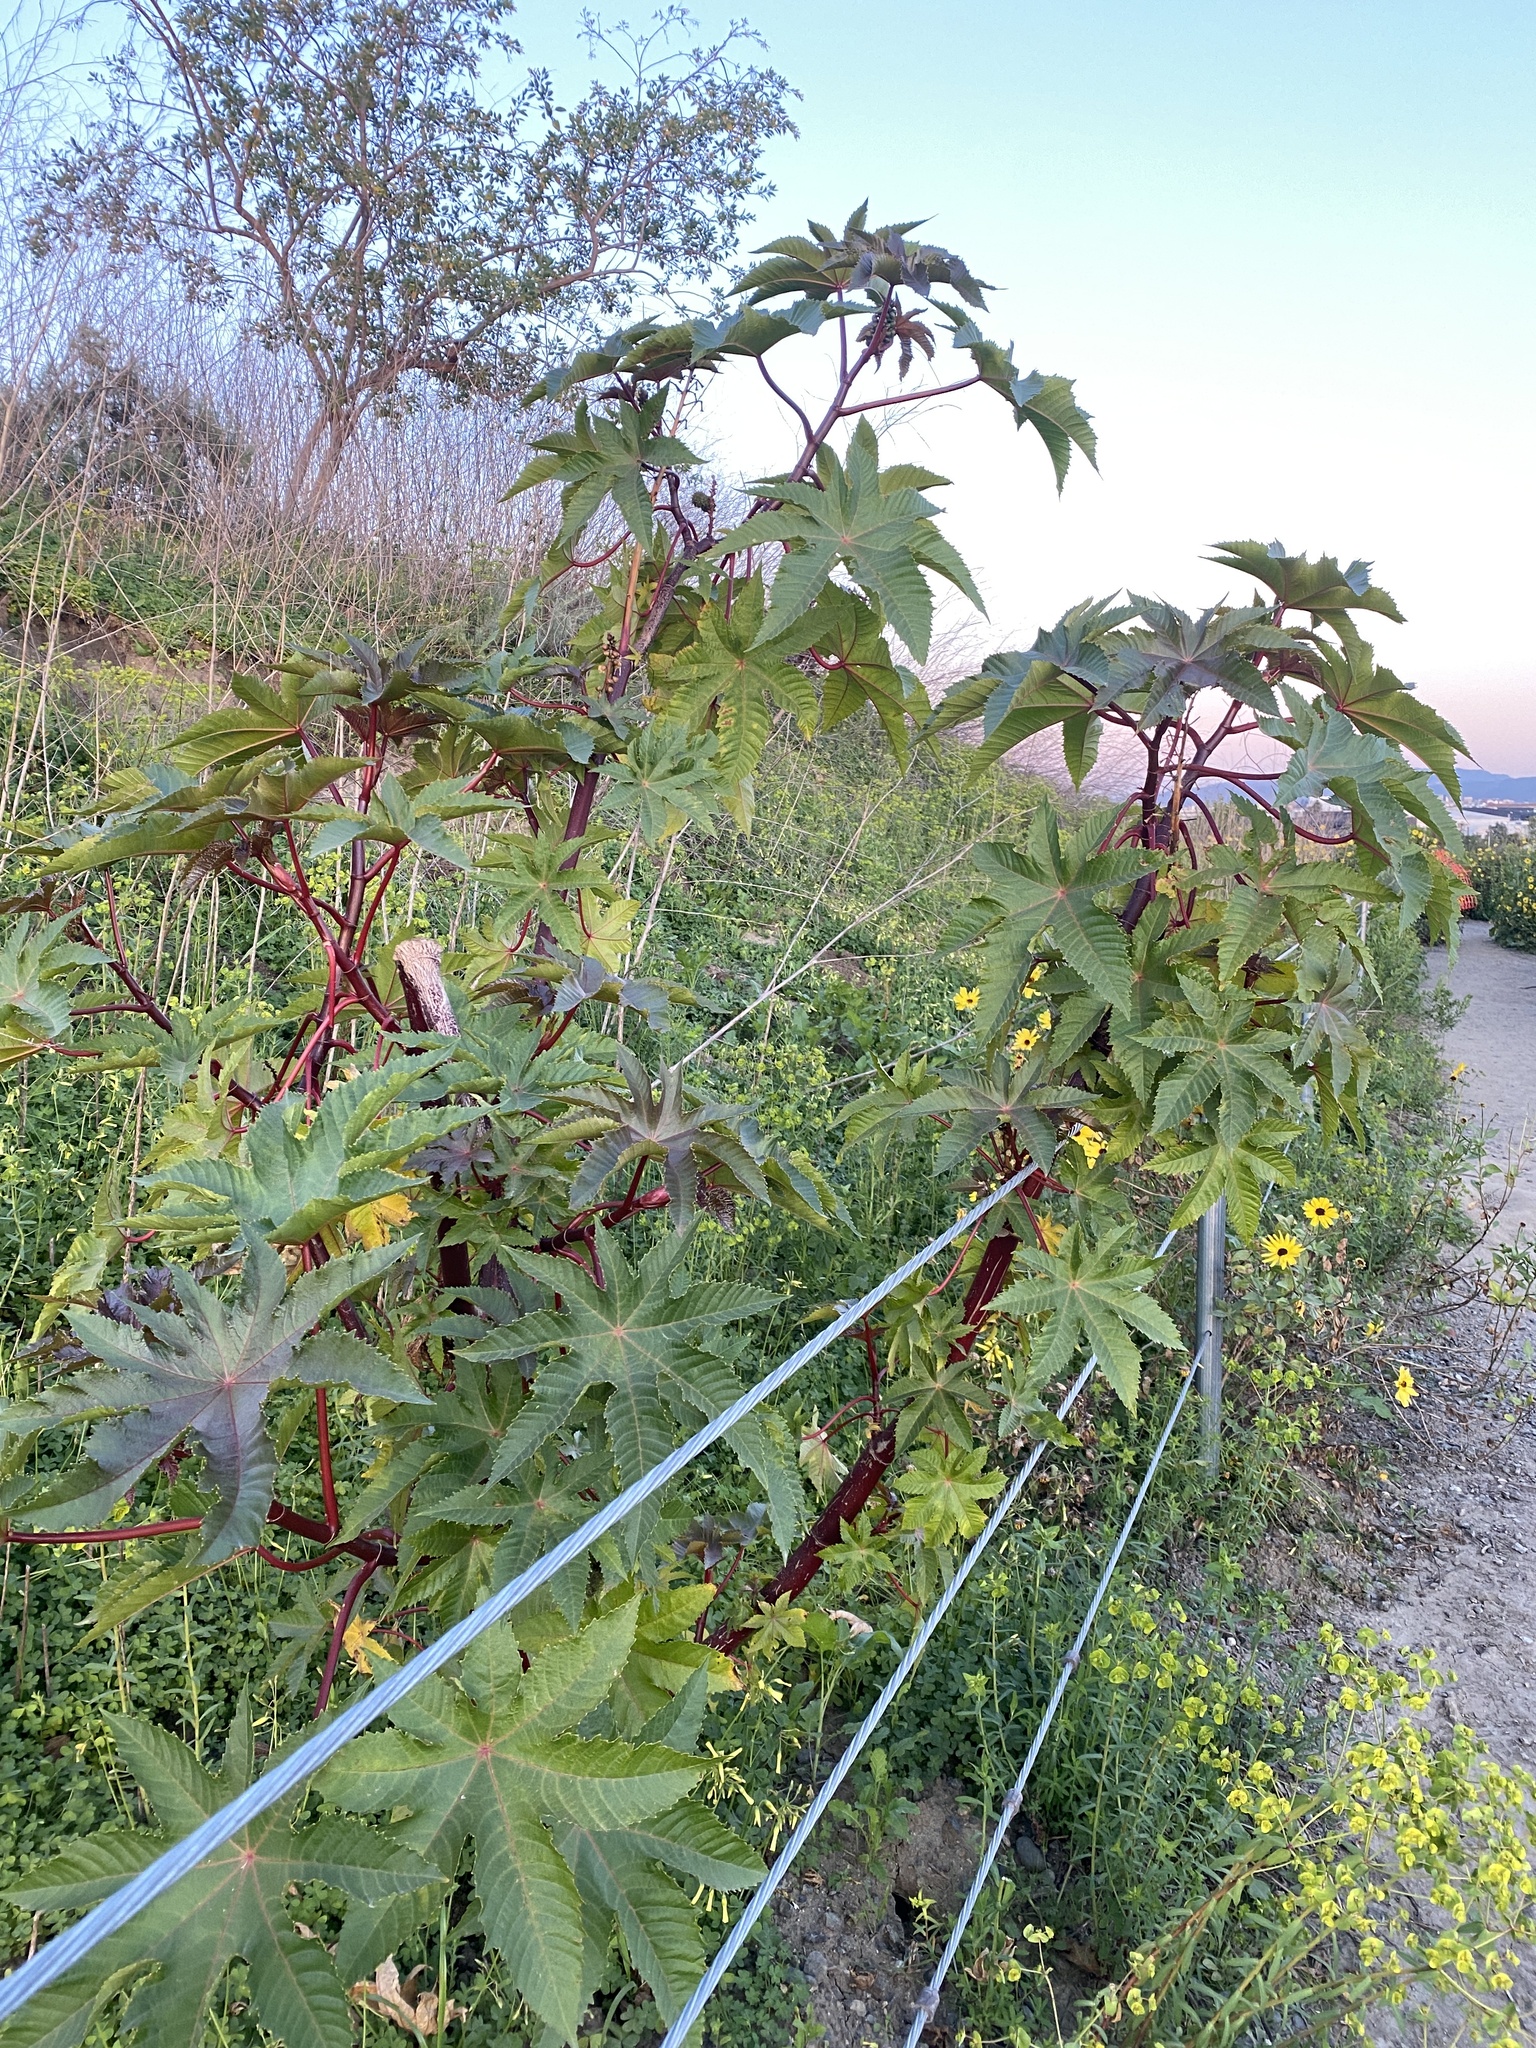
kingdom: Plantae
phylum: Tracheophyta
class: Magnoliopsida
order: Malpighiales
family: Euphorbiaceae
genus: Ricinus
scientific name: Ricinus communis
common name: Castor-oil-plant
